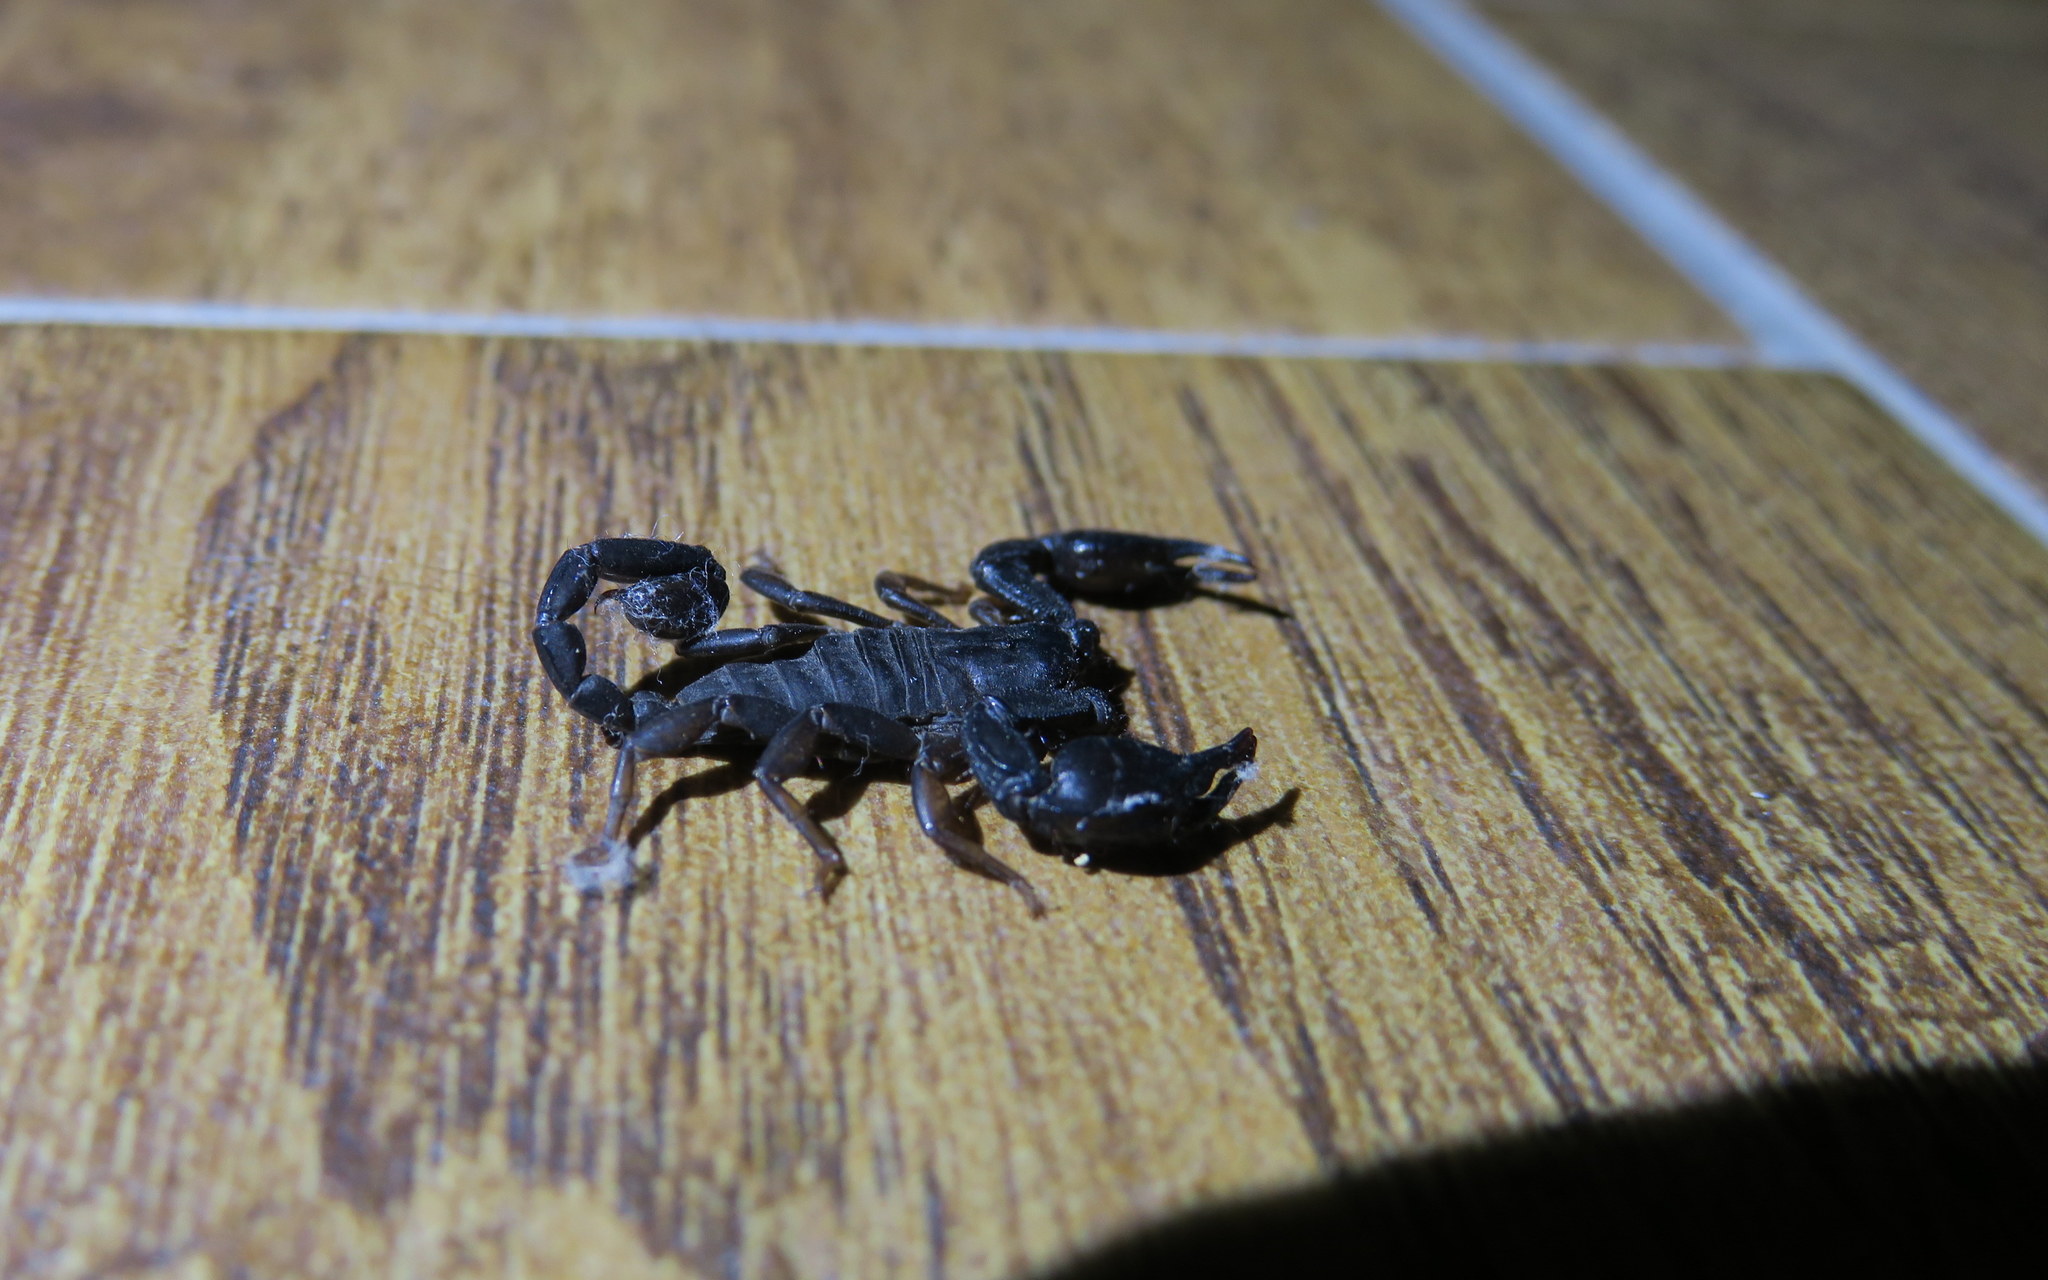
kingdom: Animalia
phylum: Arthropoda
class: Arachnida
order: Scorpiones
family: Euscorpiidae
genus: Euscorpius
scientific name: Euscorpius
